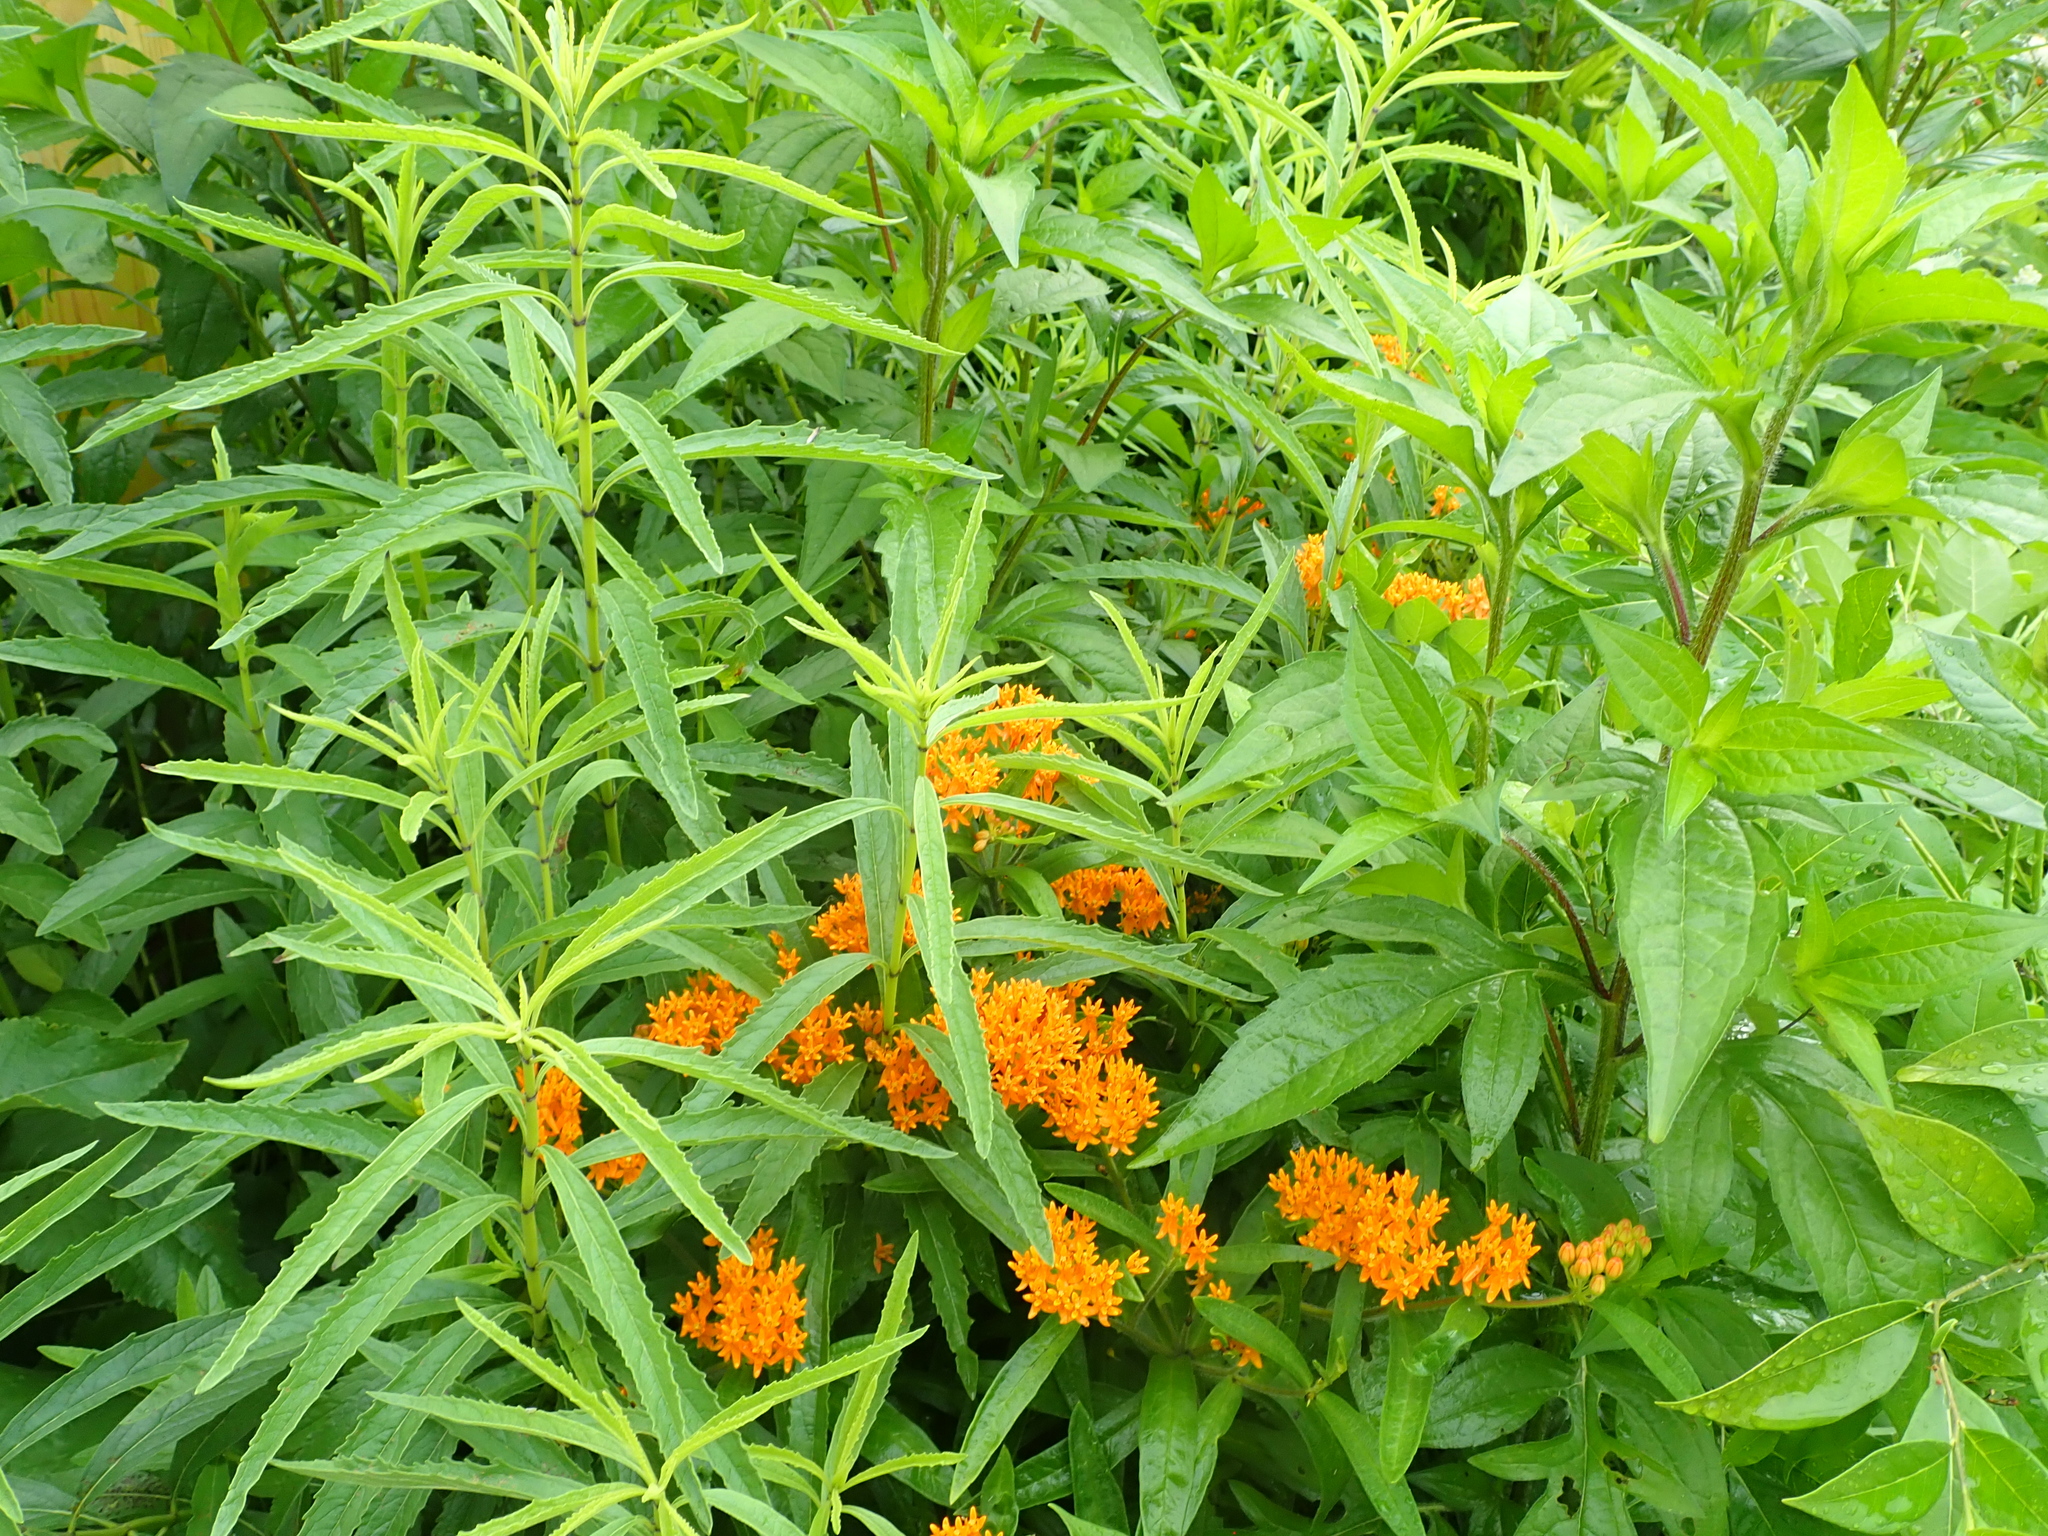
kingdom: Plantae
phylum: Tracheophyta
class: Magnoliopsida
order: Gentianales
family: Apocynaceae
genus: Asclepias
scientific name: Asclepias tuberosa
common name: Butterfly milkweed
